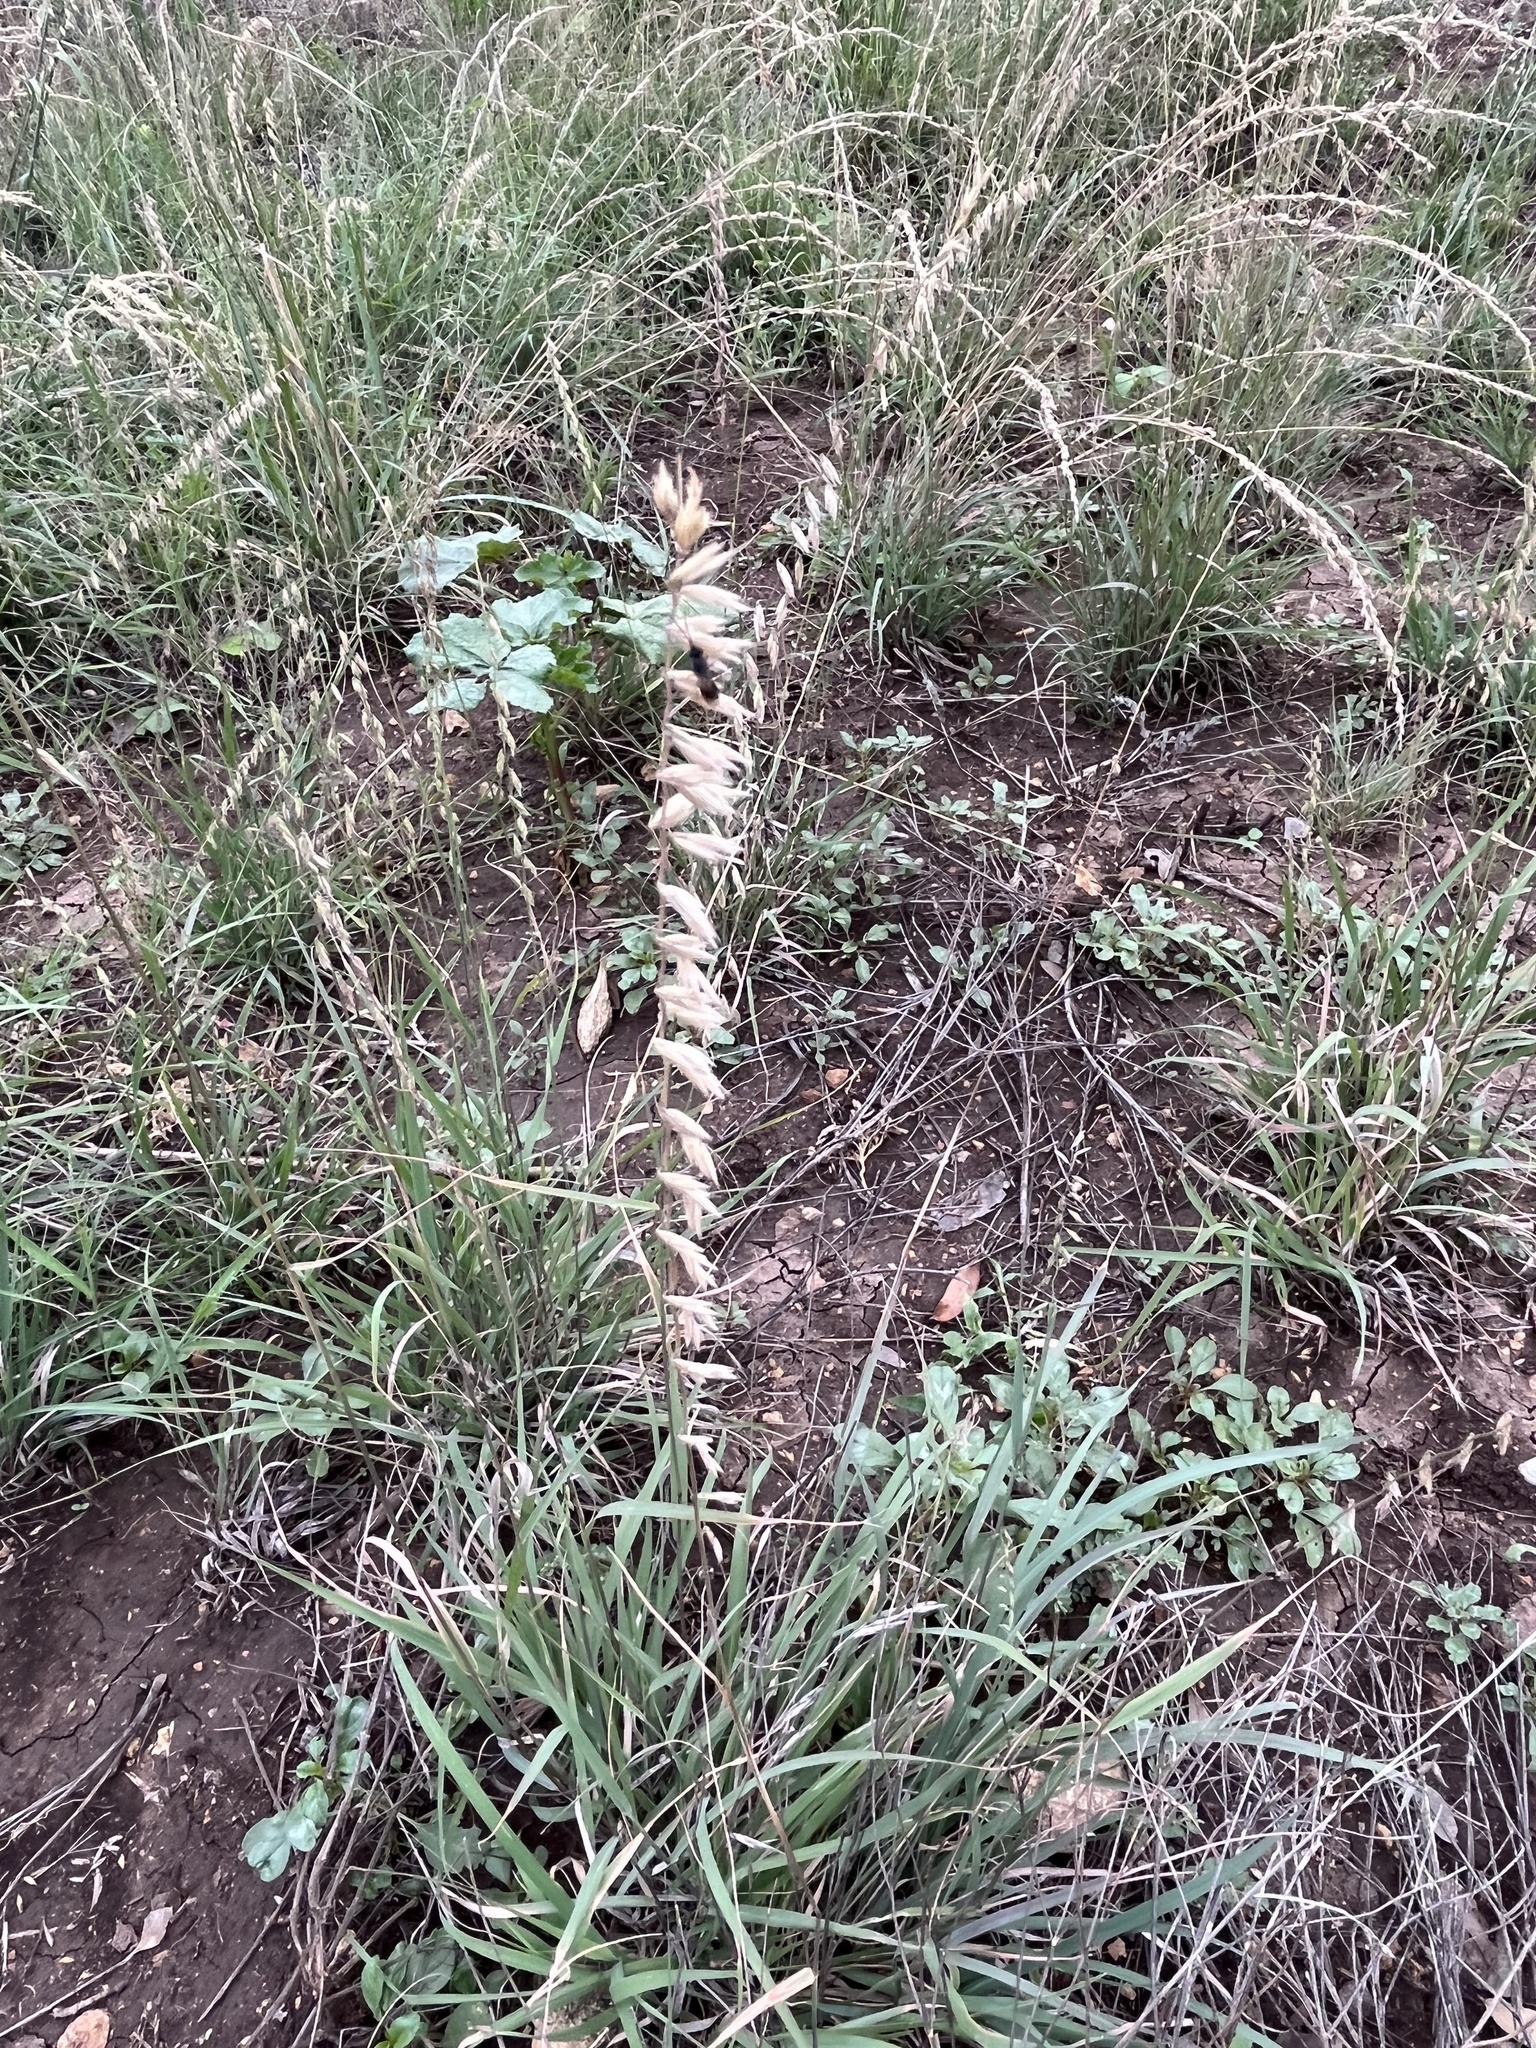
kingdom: Plantae
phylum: Tracheophyta
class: Liliopsida
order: Poales
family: Poaceae
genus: Bouteloua
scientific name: Bouteloua curtipendula
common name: Side-oats grama
